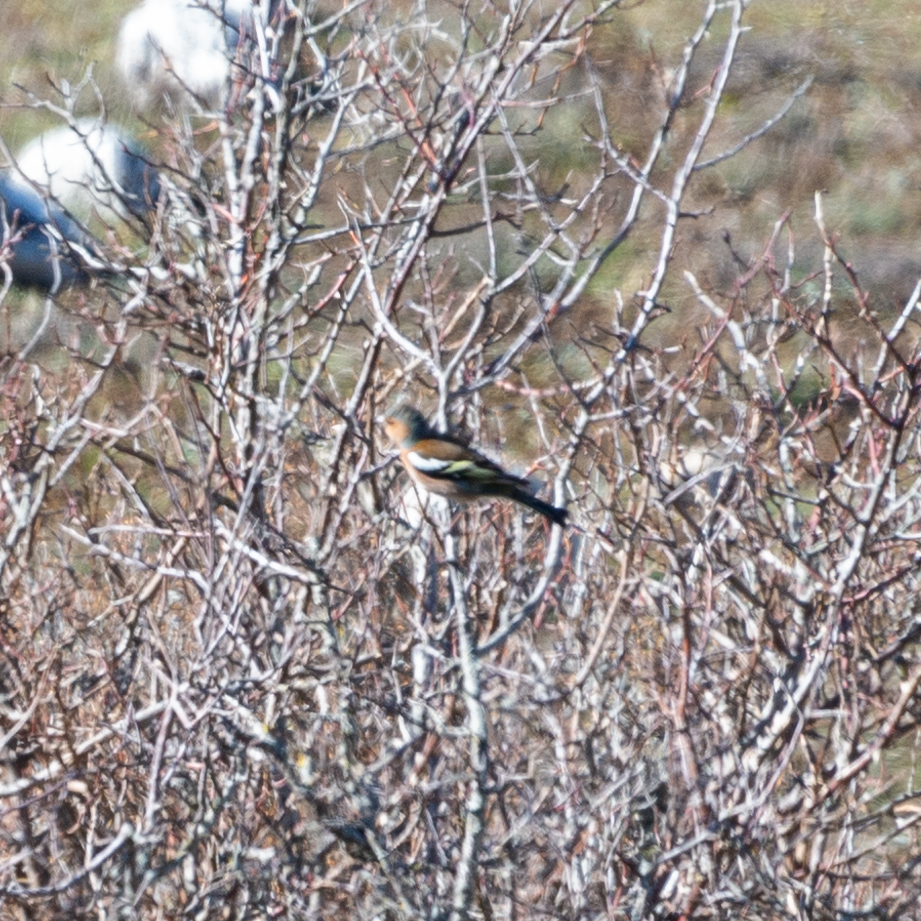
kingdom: Animalia
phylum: Chordata
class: Aves
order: Passeriformes
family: Fringillidae
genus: Fringilla
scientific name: Fringilla coelebs
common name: Common chaffinch
